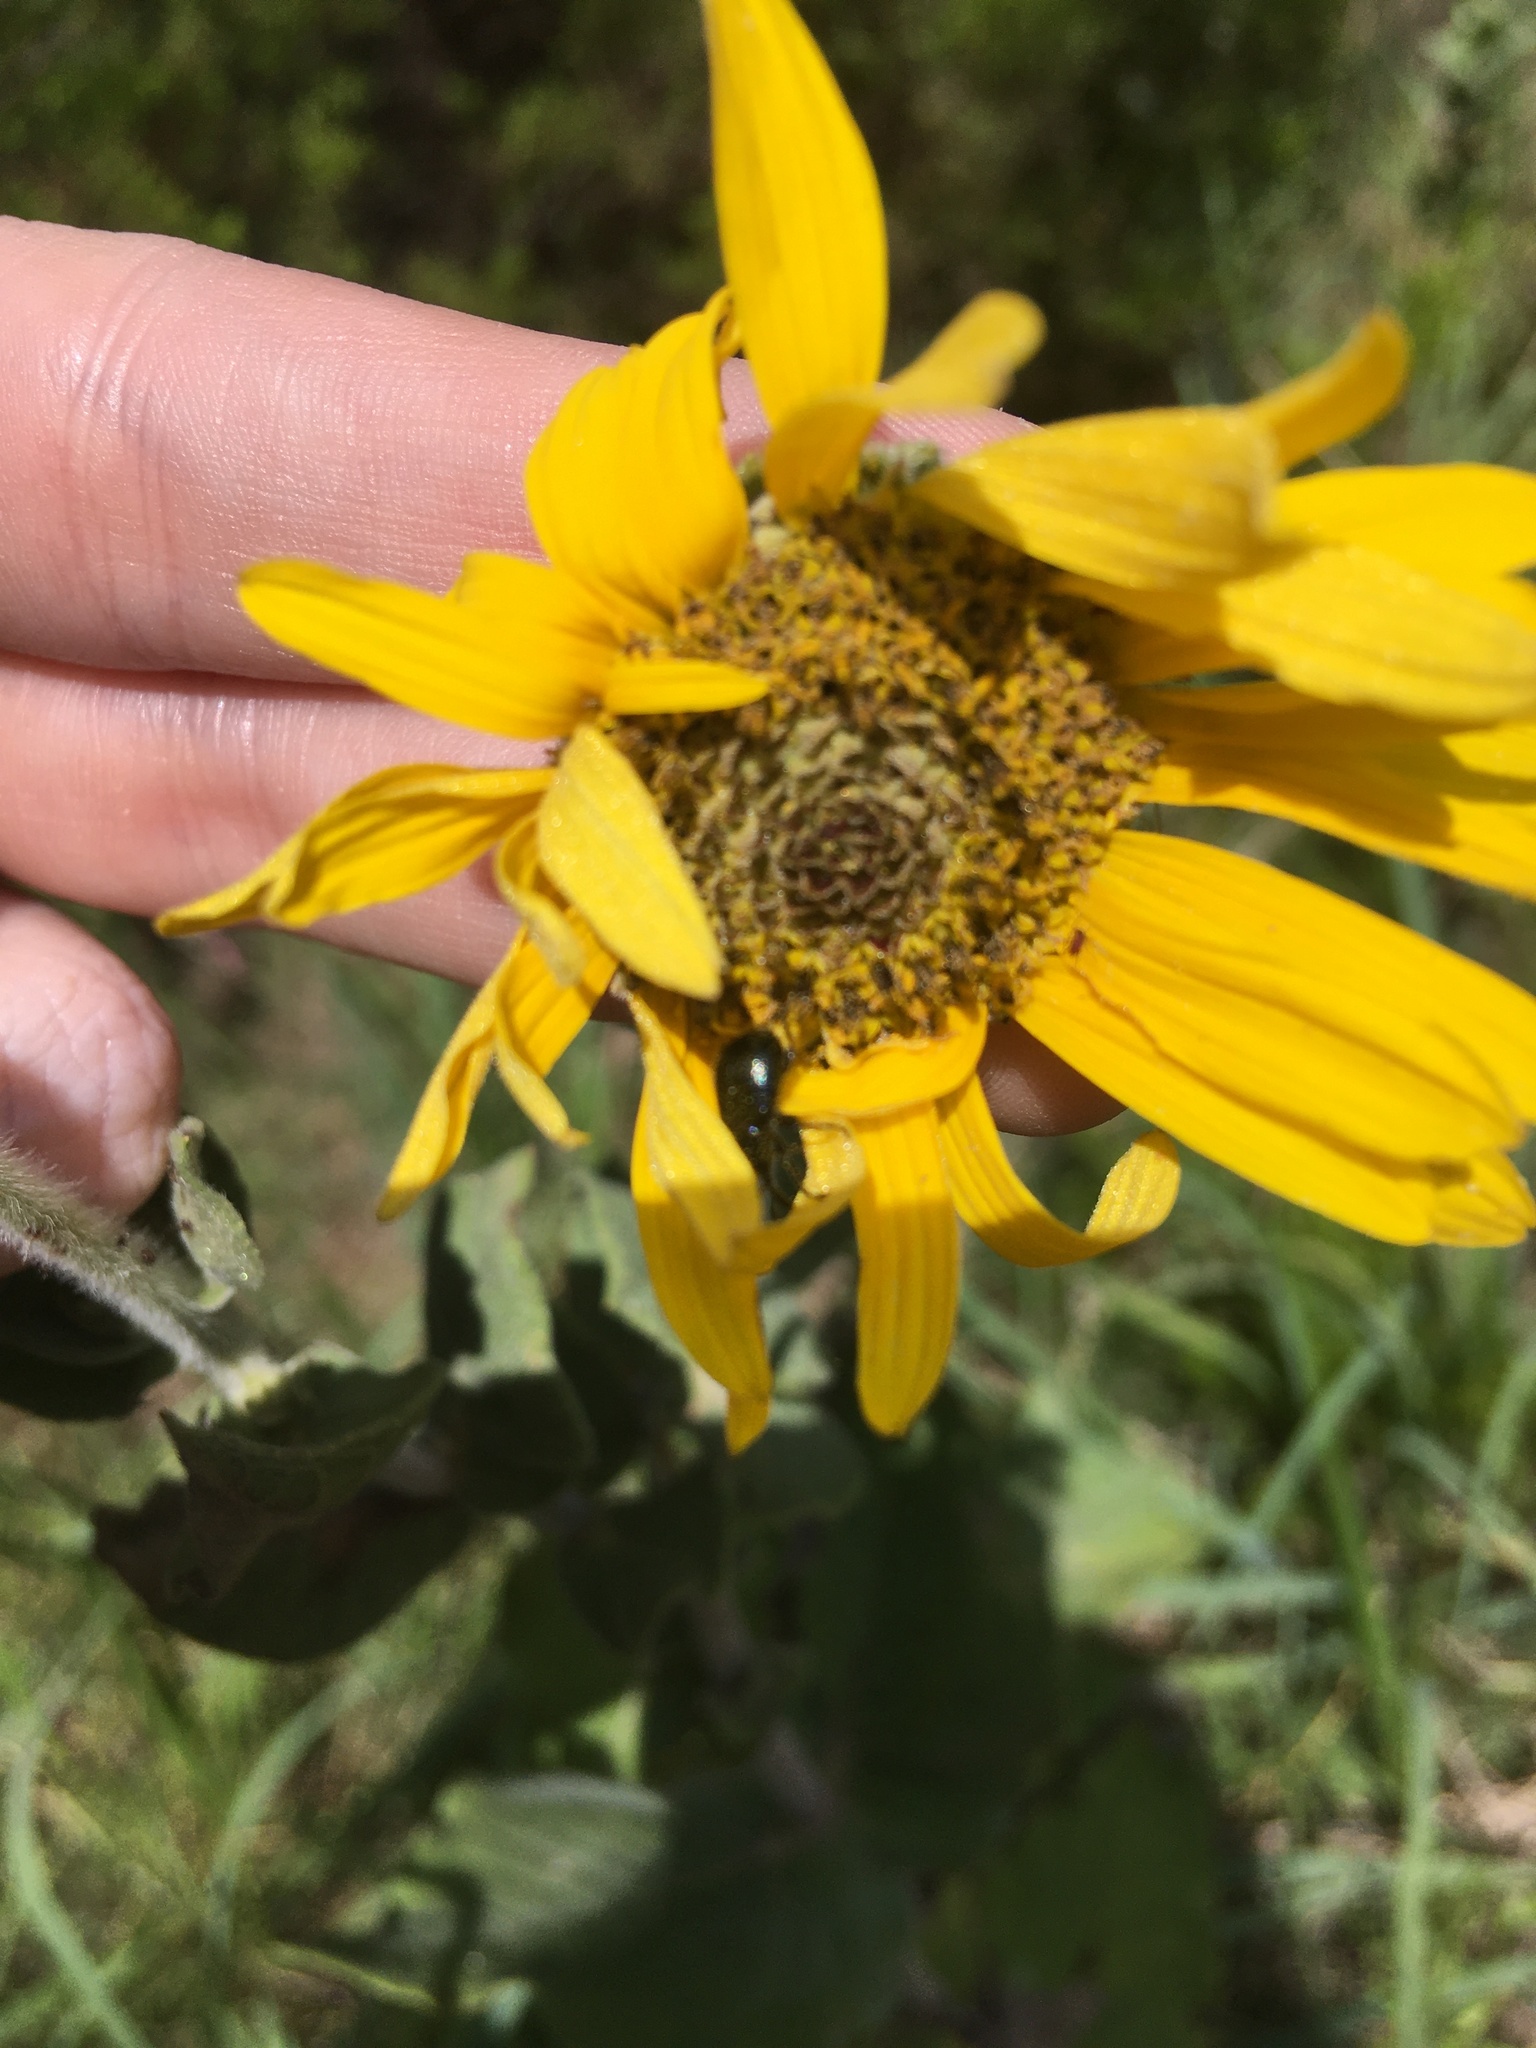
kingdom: Plantae
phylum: Tracheophyta
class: Magnoliopsida
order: Asterales
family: Asteraceae
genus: Helianthus
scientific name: Helianthus mollis
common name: Ashy sunflower
